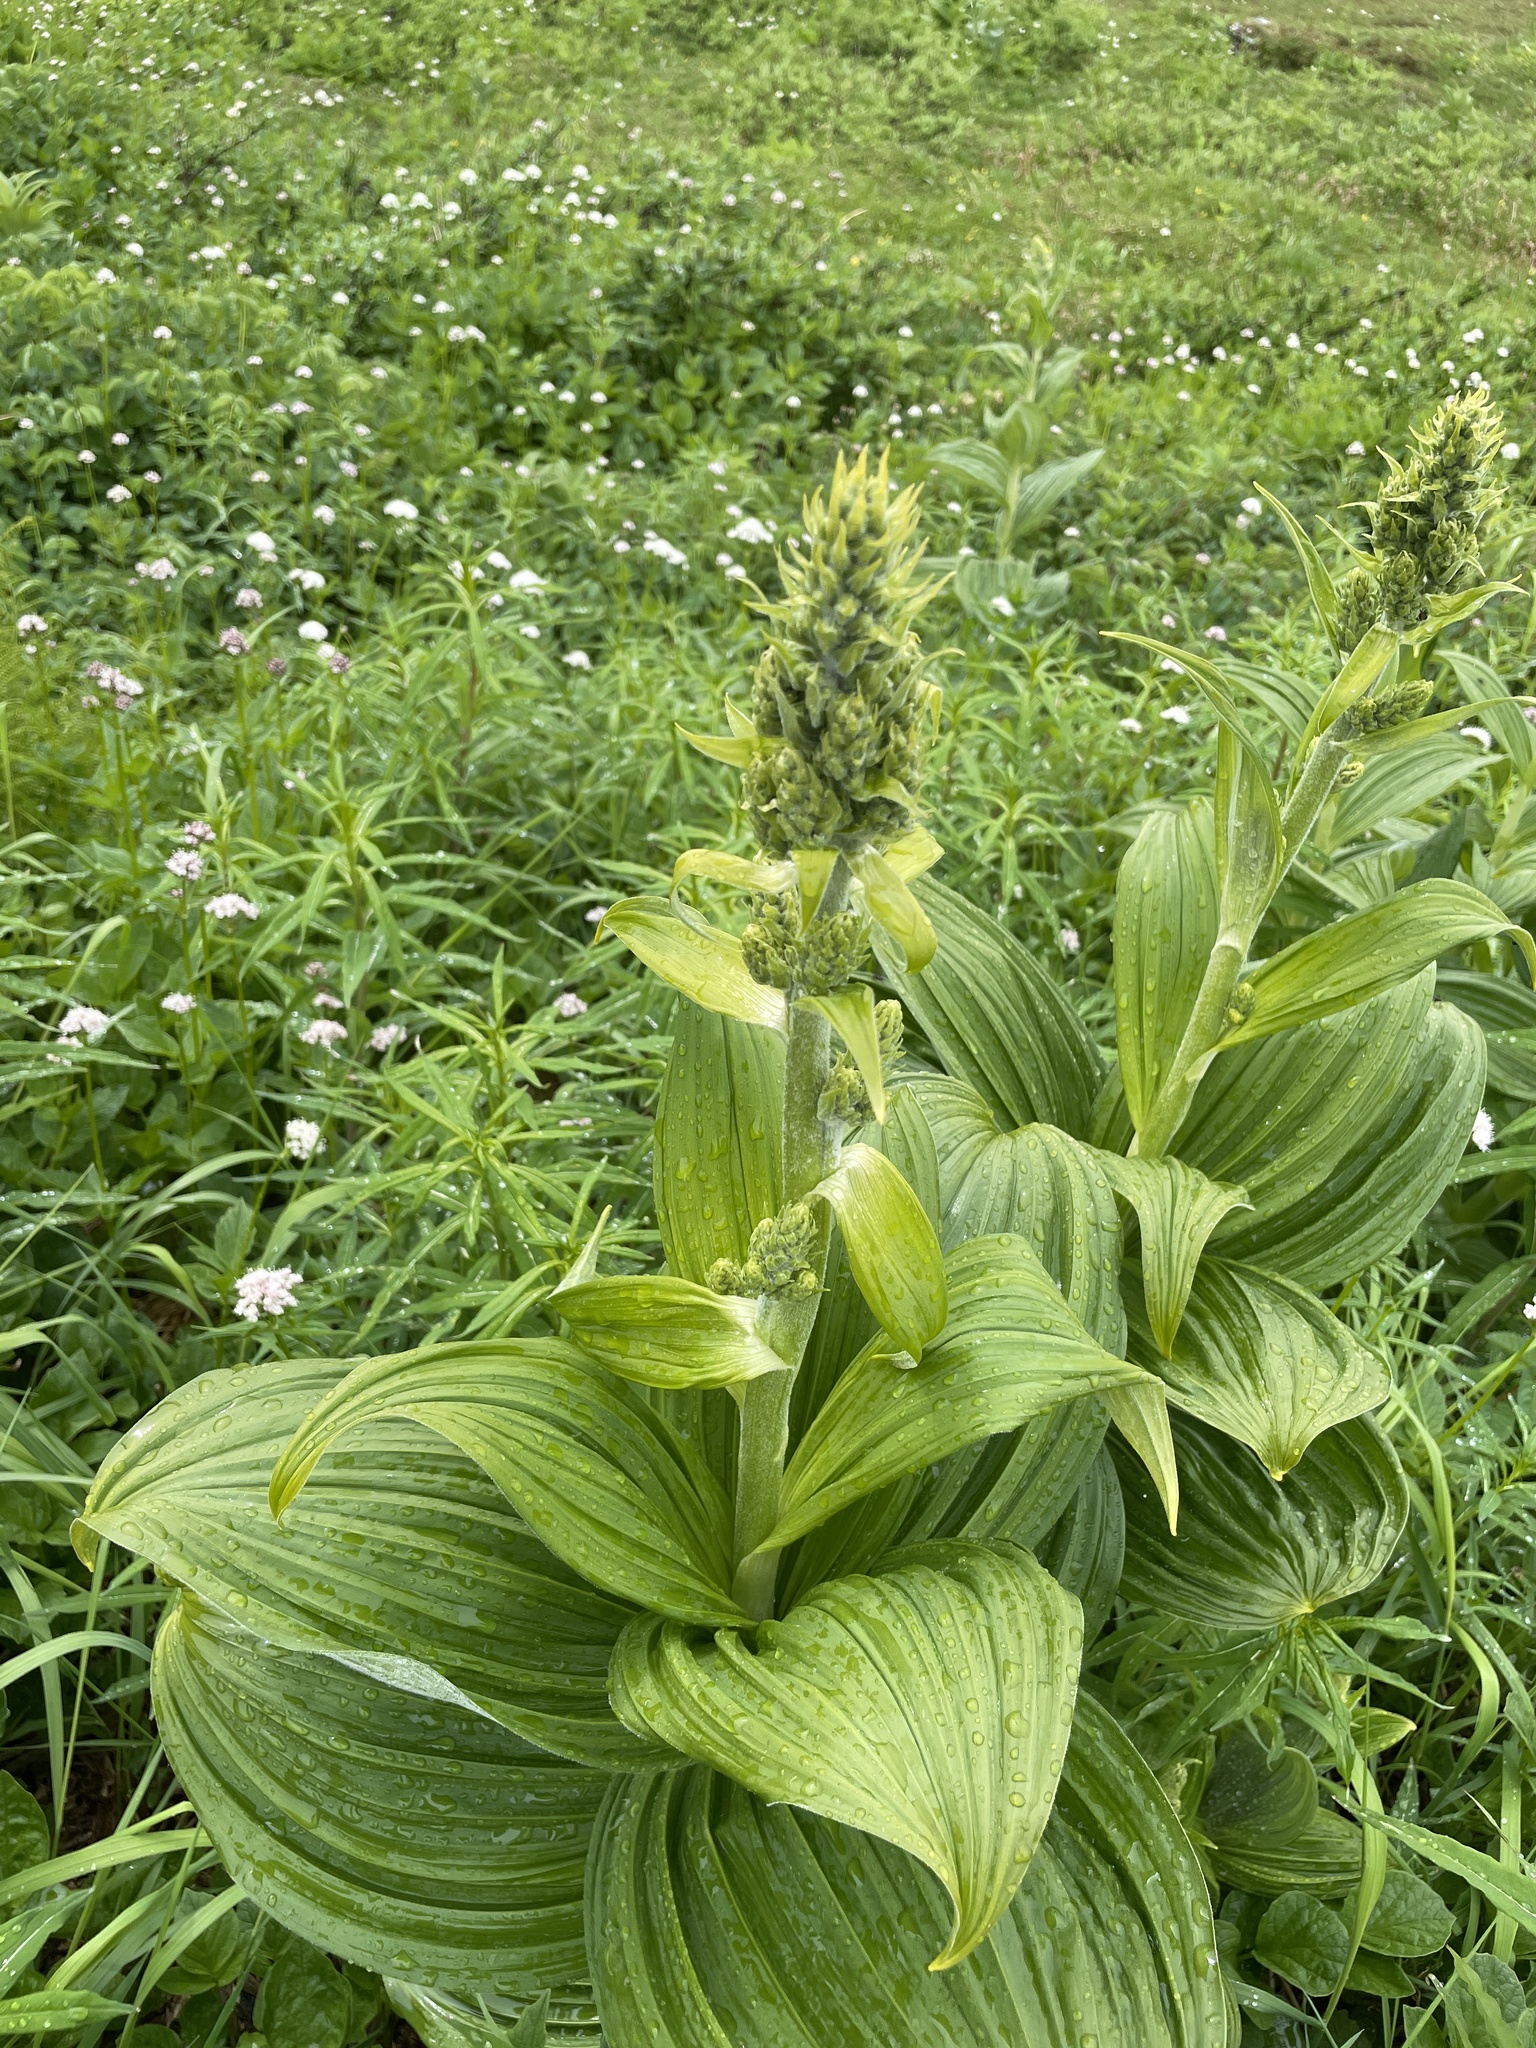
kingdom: Plantae
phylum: Tracheophyta
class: Liliopsida
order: Liliales
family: Melanthiaceae
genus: Veratrum
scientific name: Veratrum viride
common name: American false hellebore
